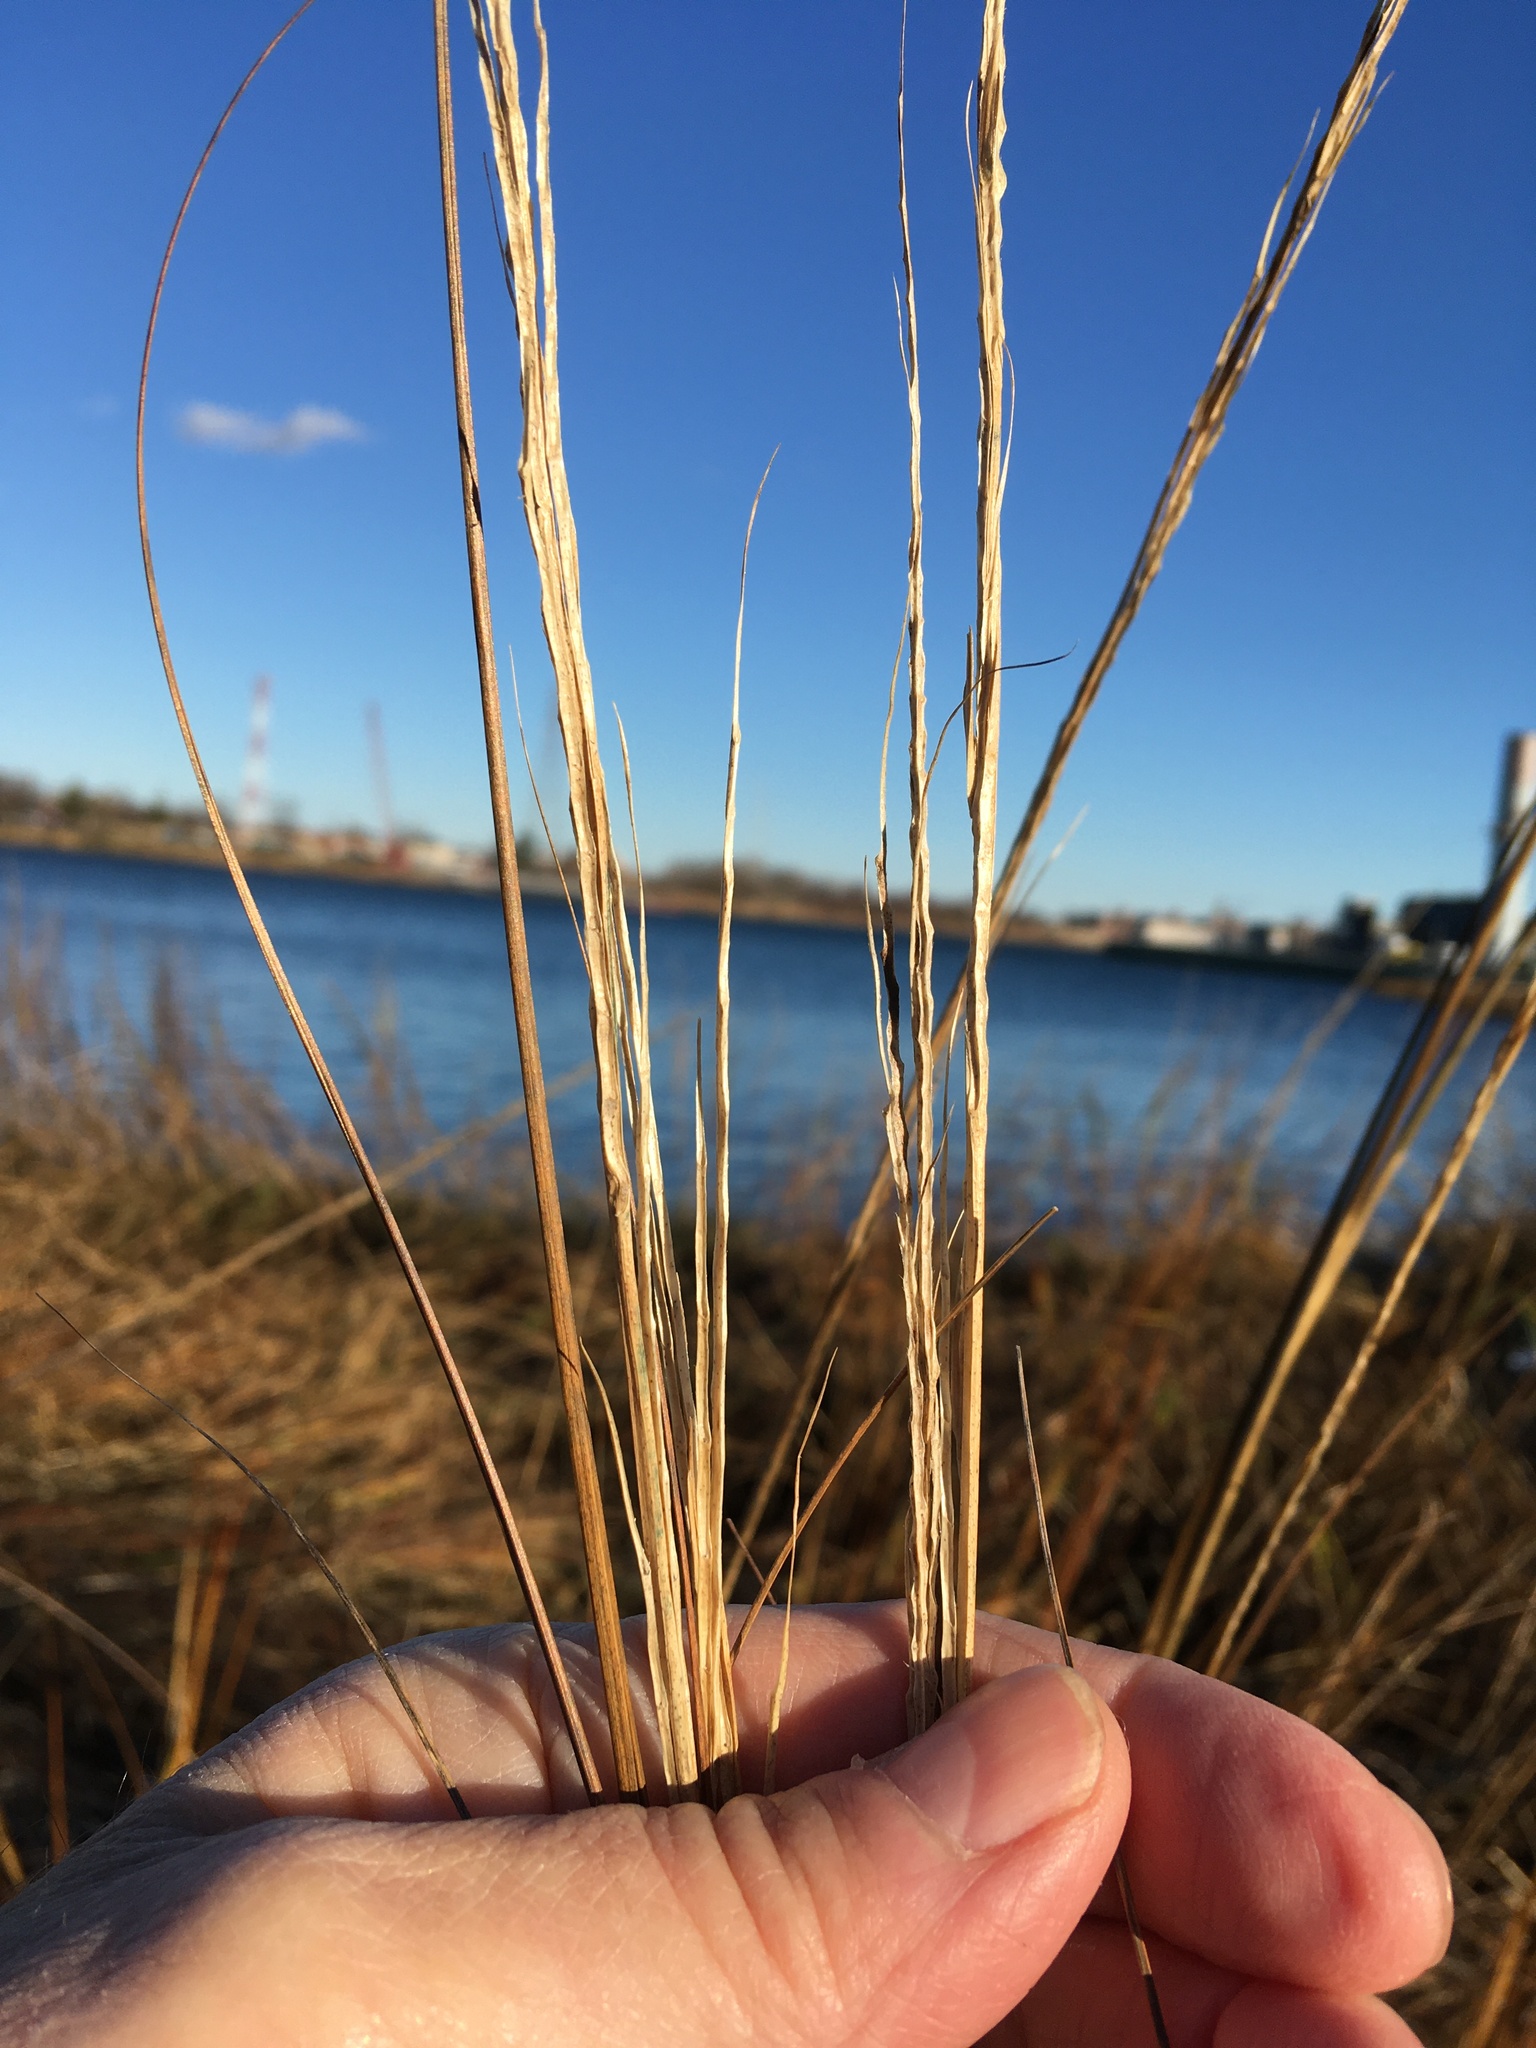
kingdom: Plantae
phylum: Tracheophyta
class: Liliopsida
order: Poales
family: Poaceae
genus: Sporobolus
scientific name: Sporobolus alterniflorus
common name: Atlantic cordgrass
